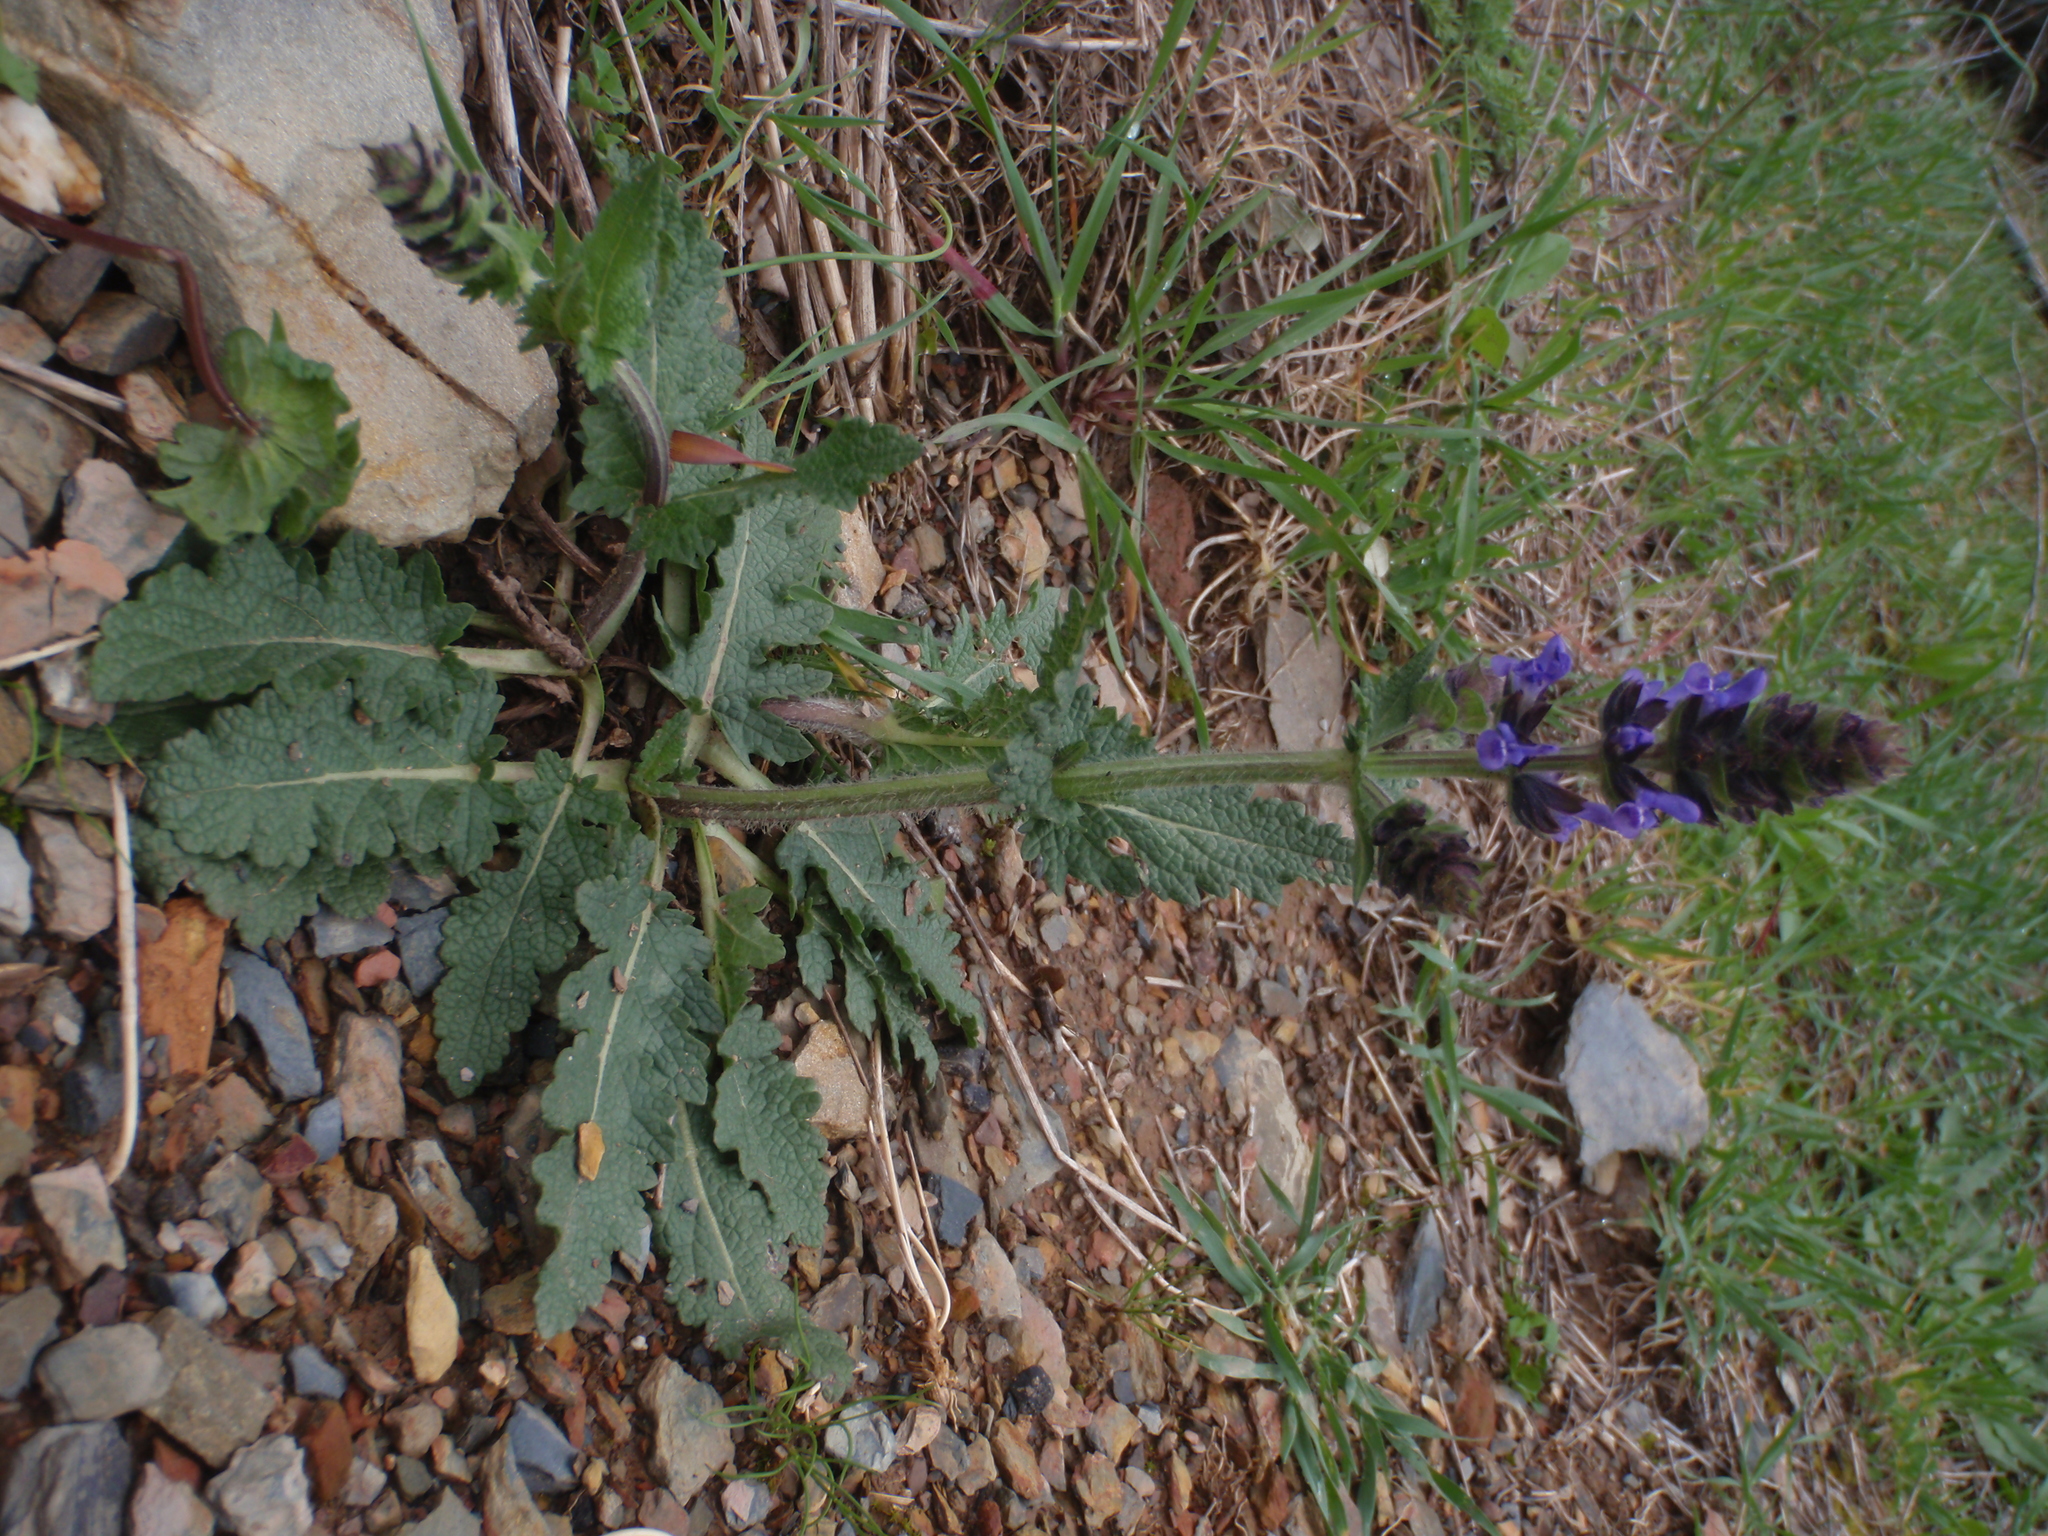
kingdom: Plantae
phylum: Tracheophyta
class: Magnoliopsida
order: Lamiales
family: Lamiaceae
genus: Salvia
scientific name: Salvia verbenaca
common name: Wild clary
